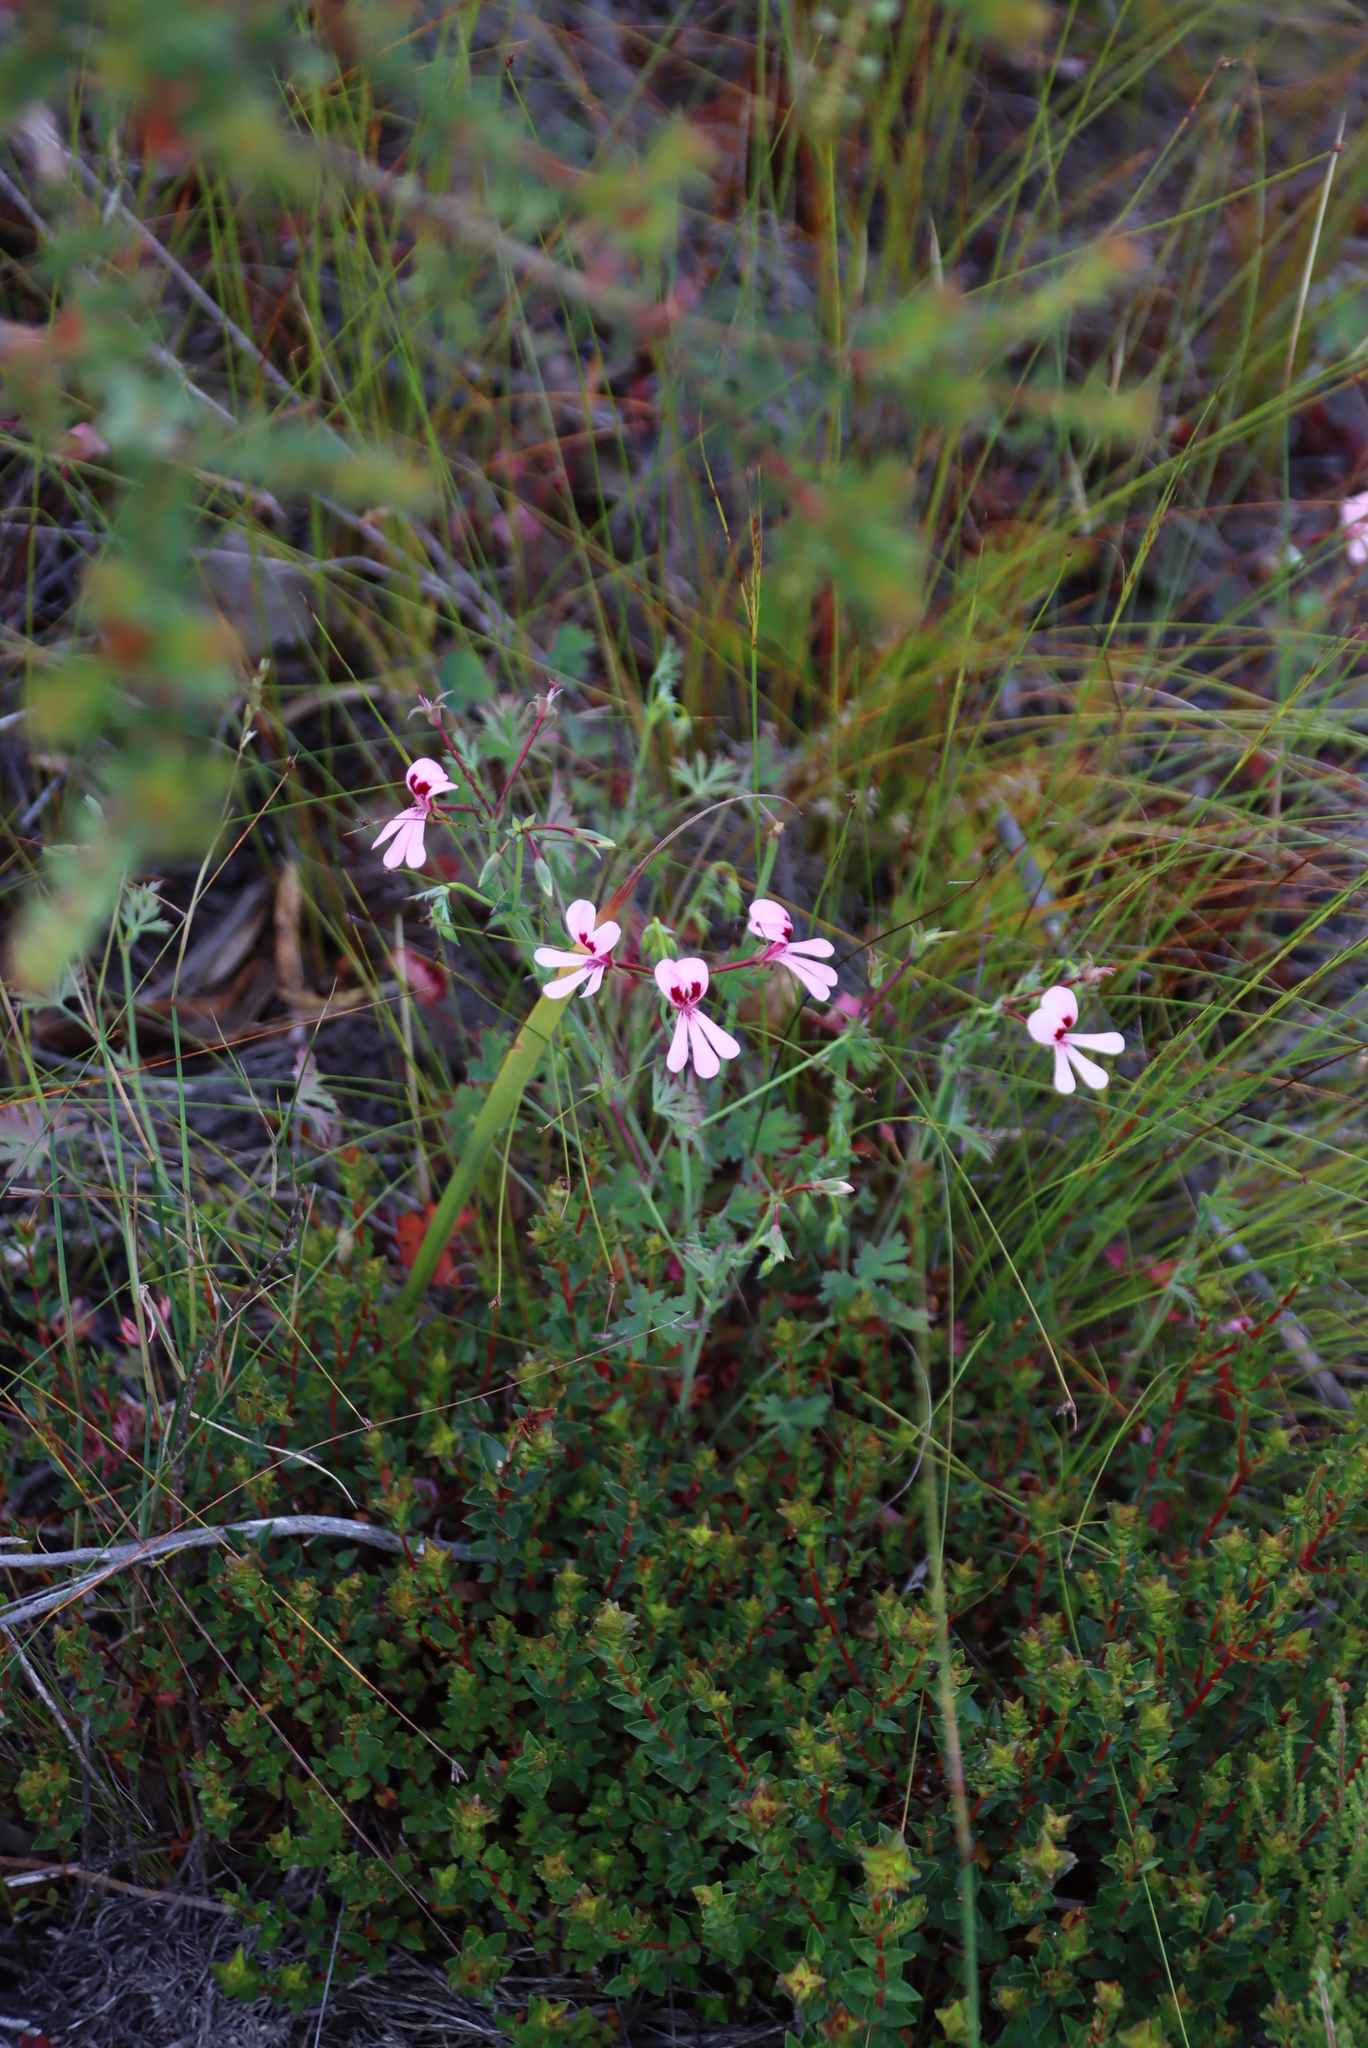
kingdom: Plantae
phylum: Tracheophyta
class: Magnoliopsida
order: Geraniales
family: Geraniaceae
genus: Pelargonium
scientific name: Pelargonium patulum
